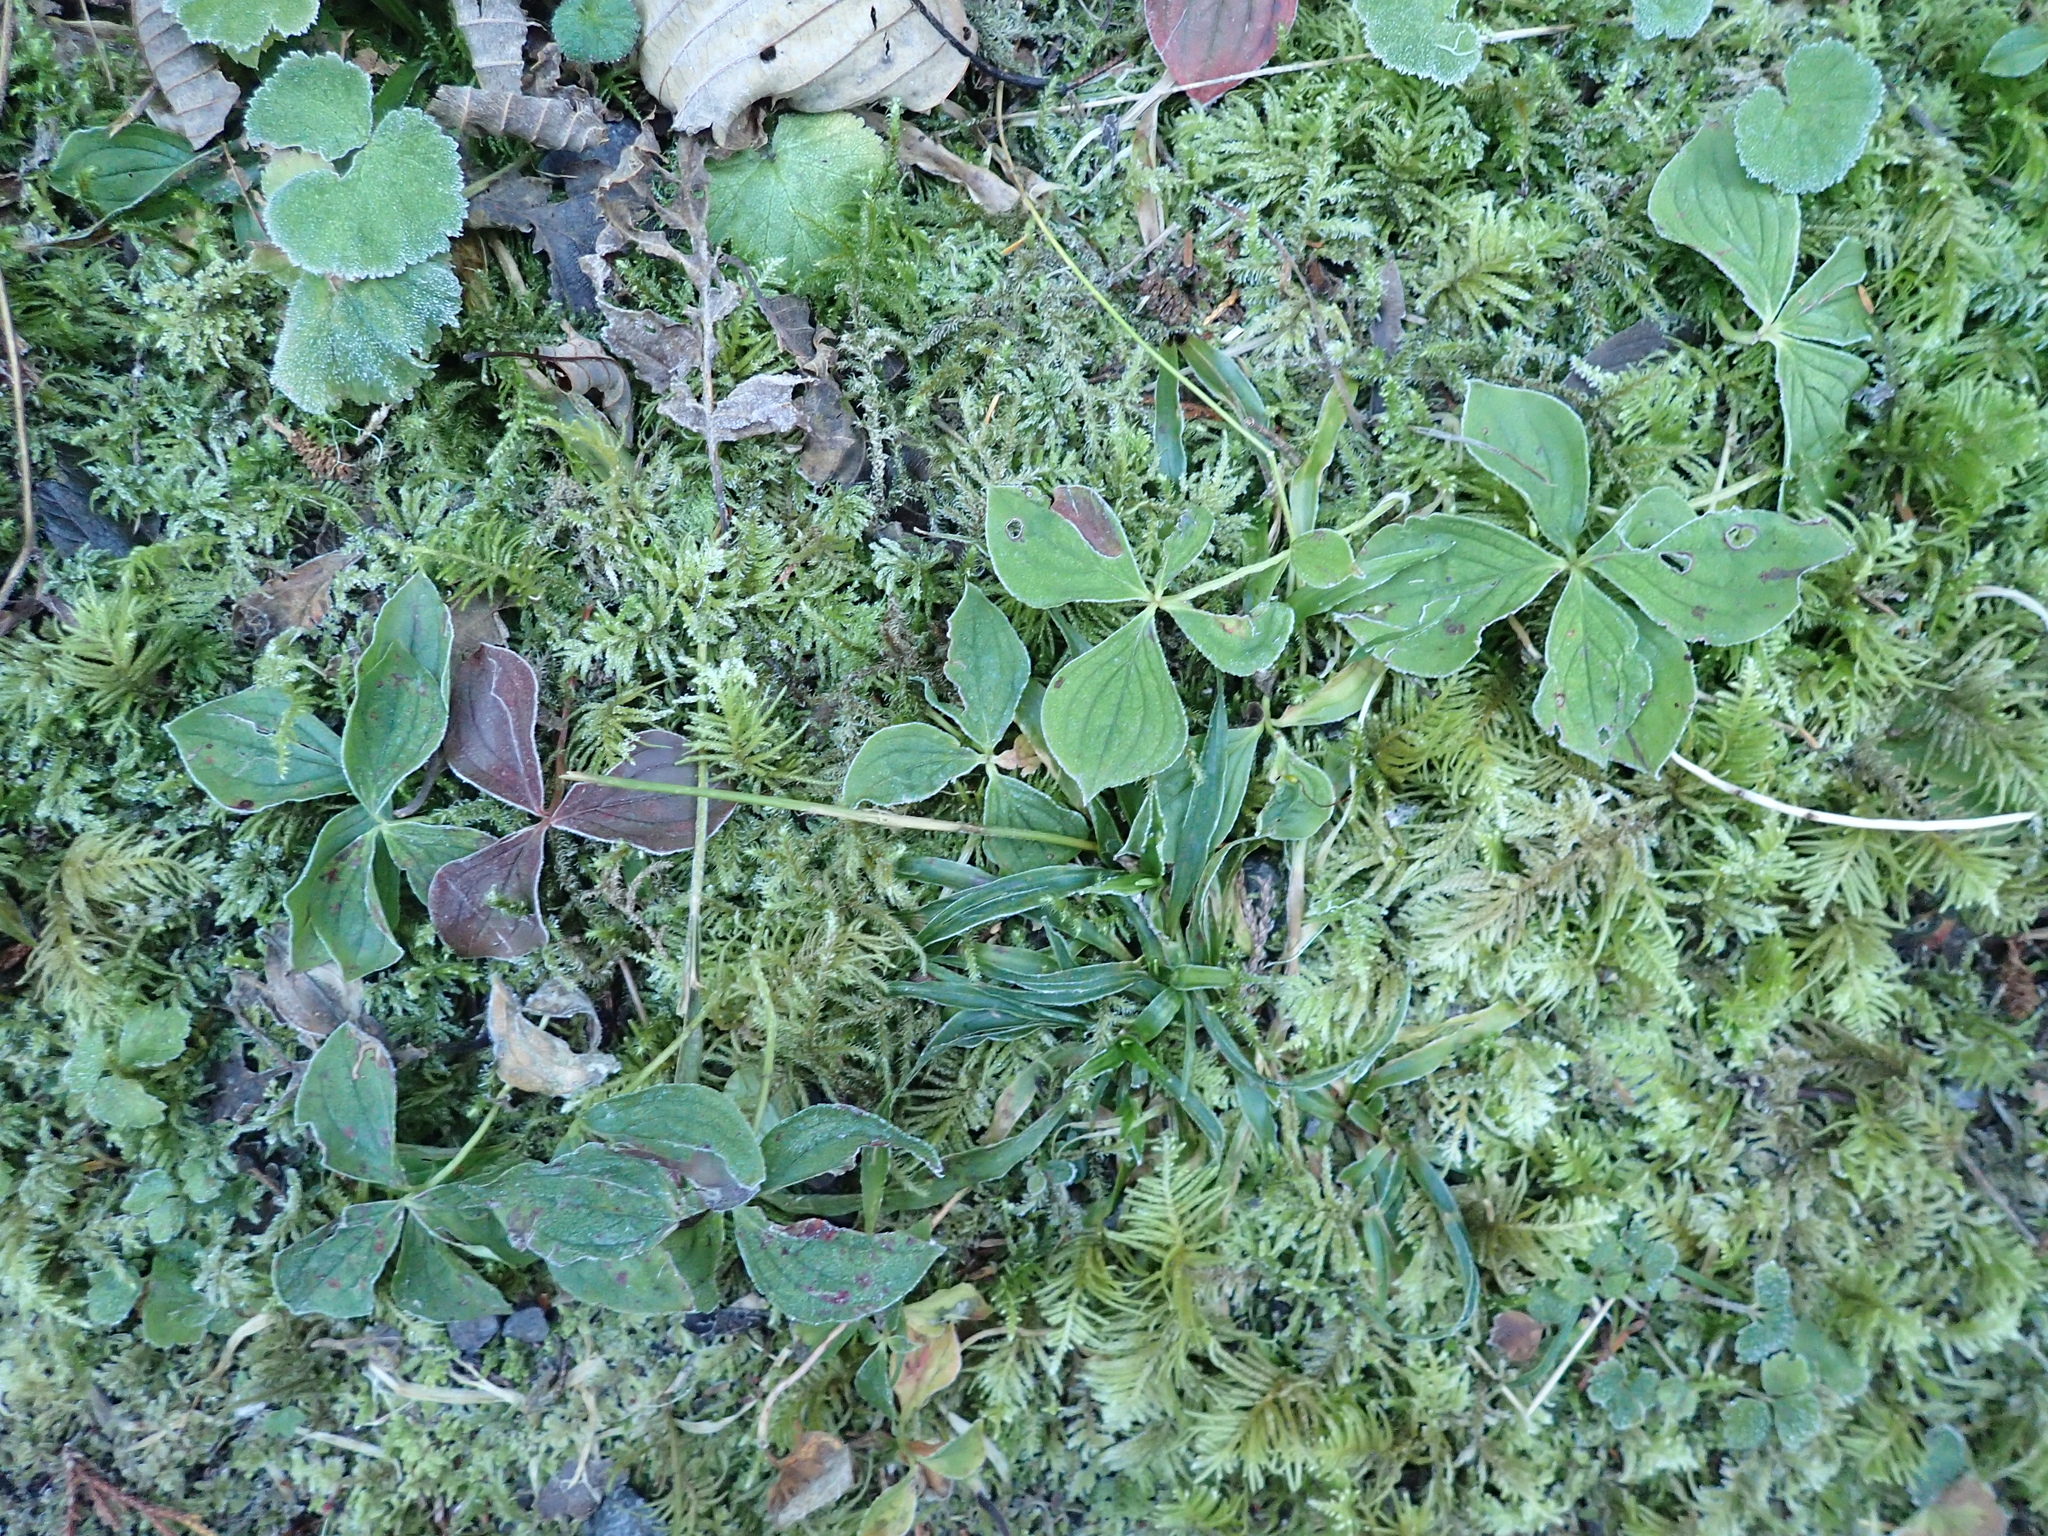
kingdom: Plantae
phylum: Tracheophyta
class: Magnoliopsida
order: Cornales
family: Cornaceae
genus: Cornus
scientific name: Cornus unalaschkensis
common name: Alaska bunchberry
